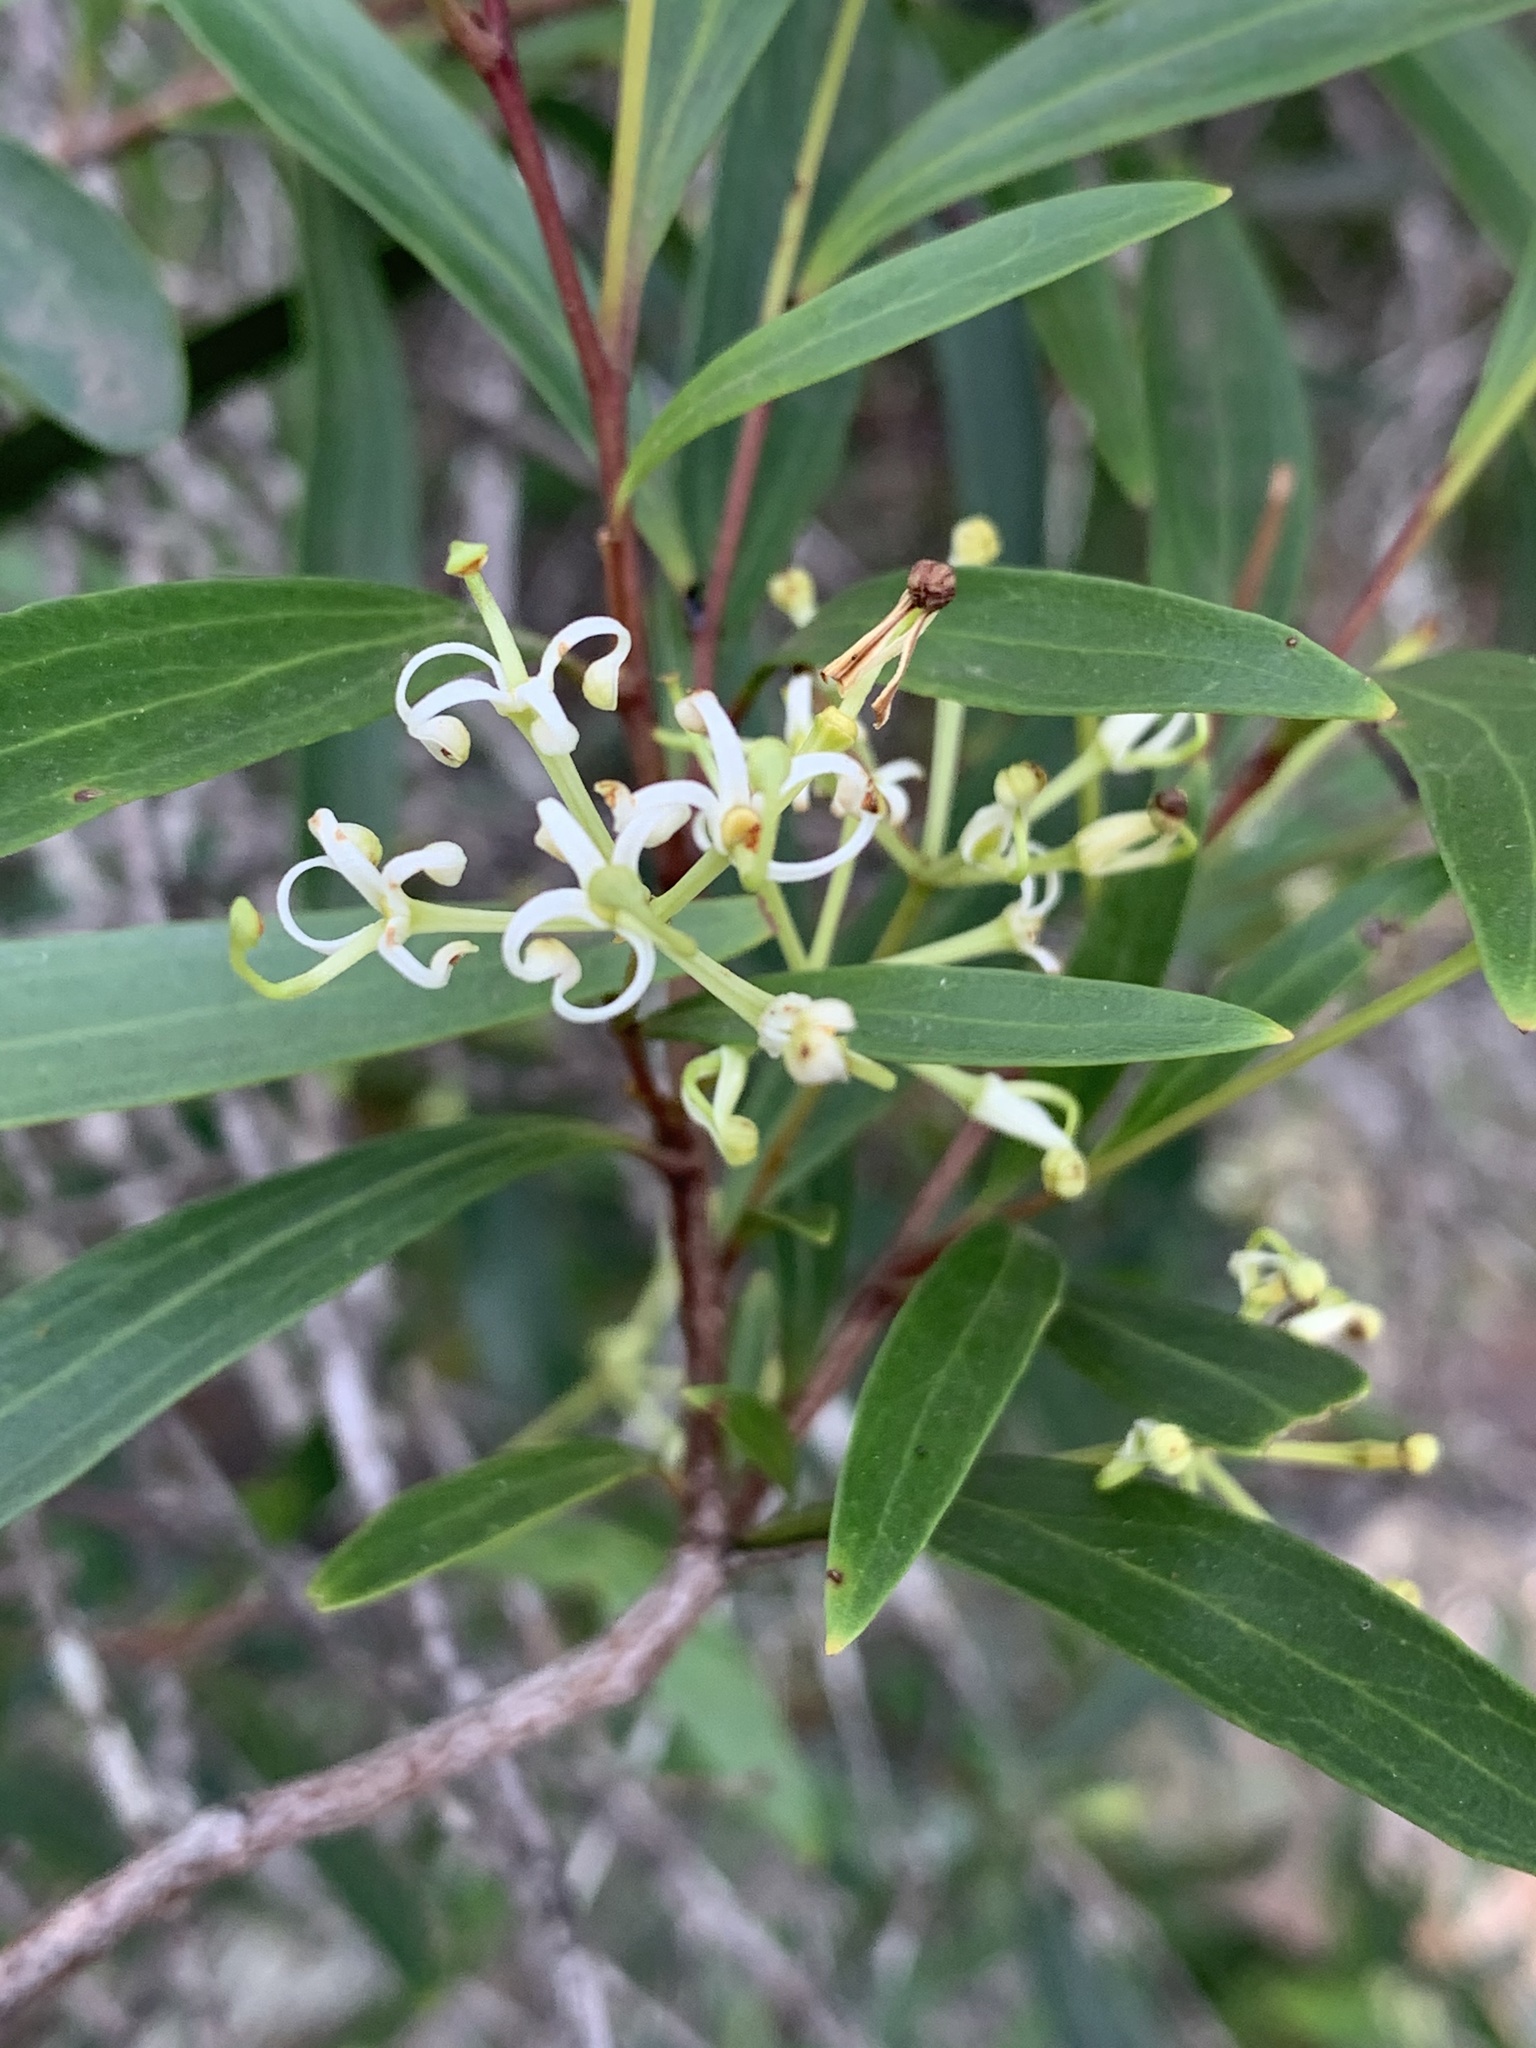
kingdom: Plantae
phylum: Tracheophyta
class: Magnoliopsida
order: Proteales
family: Proteaceae
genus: Stenocarpus
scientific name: Stenocarpus salignus
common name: Red silky-oak
